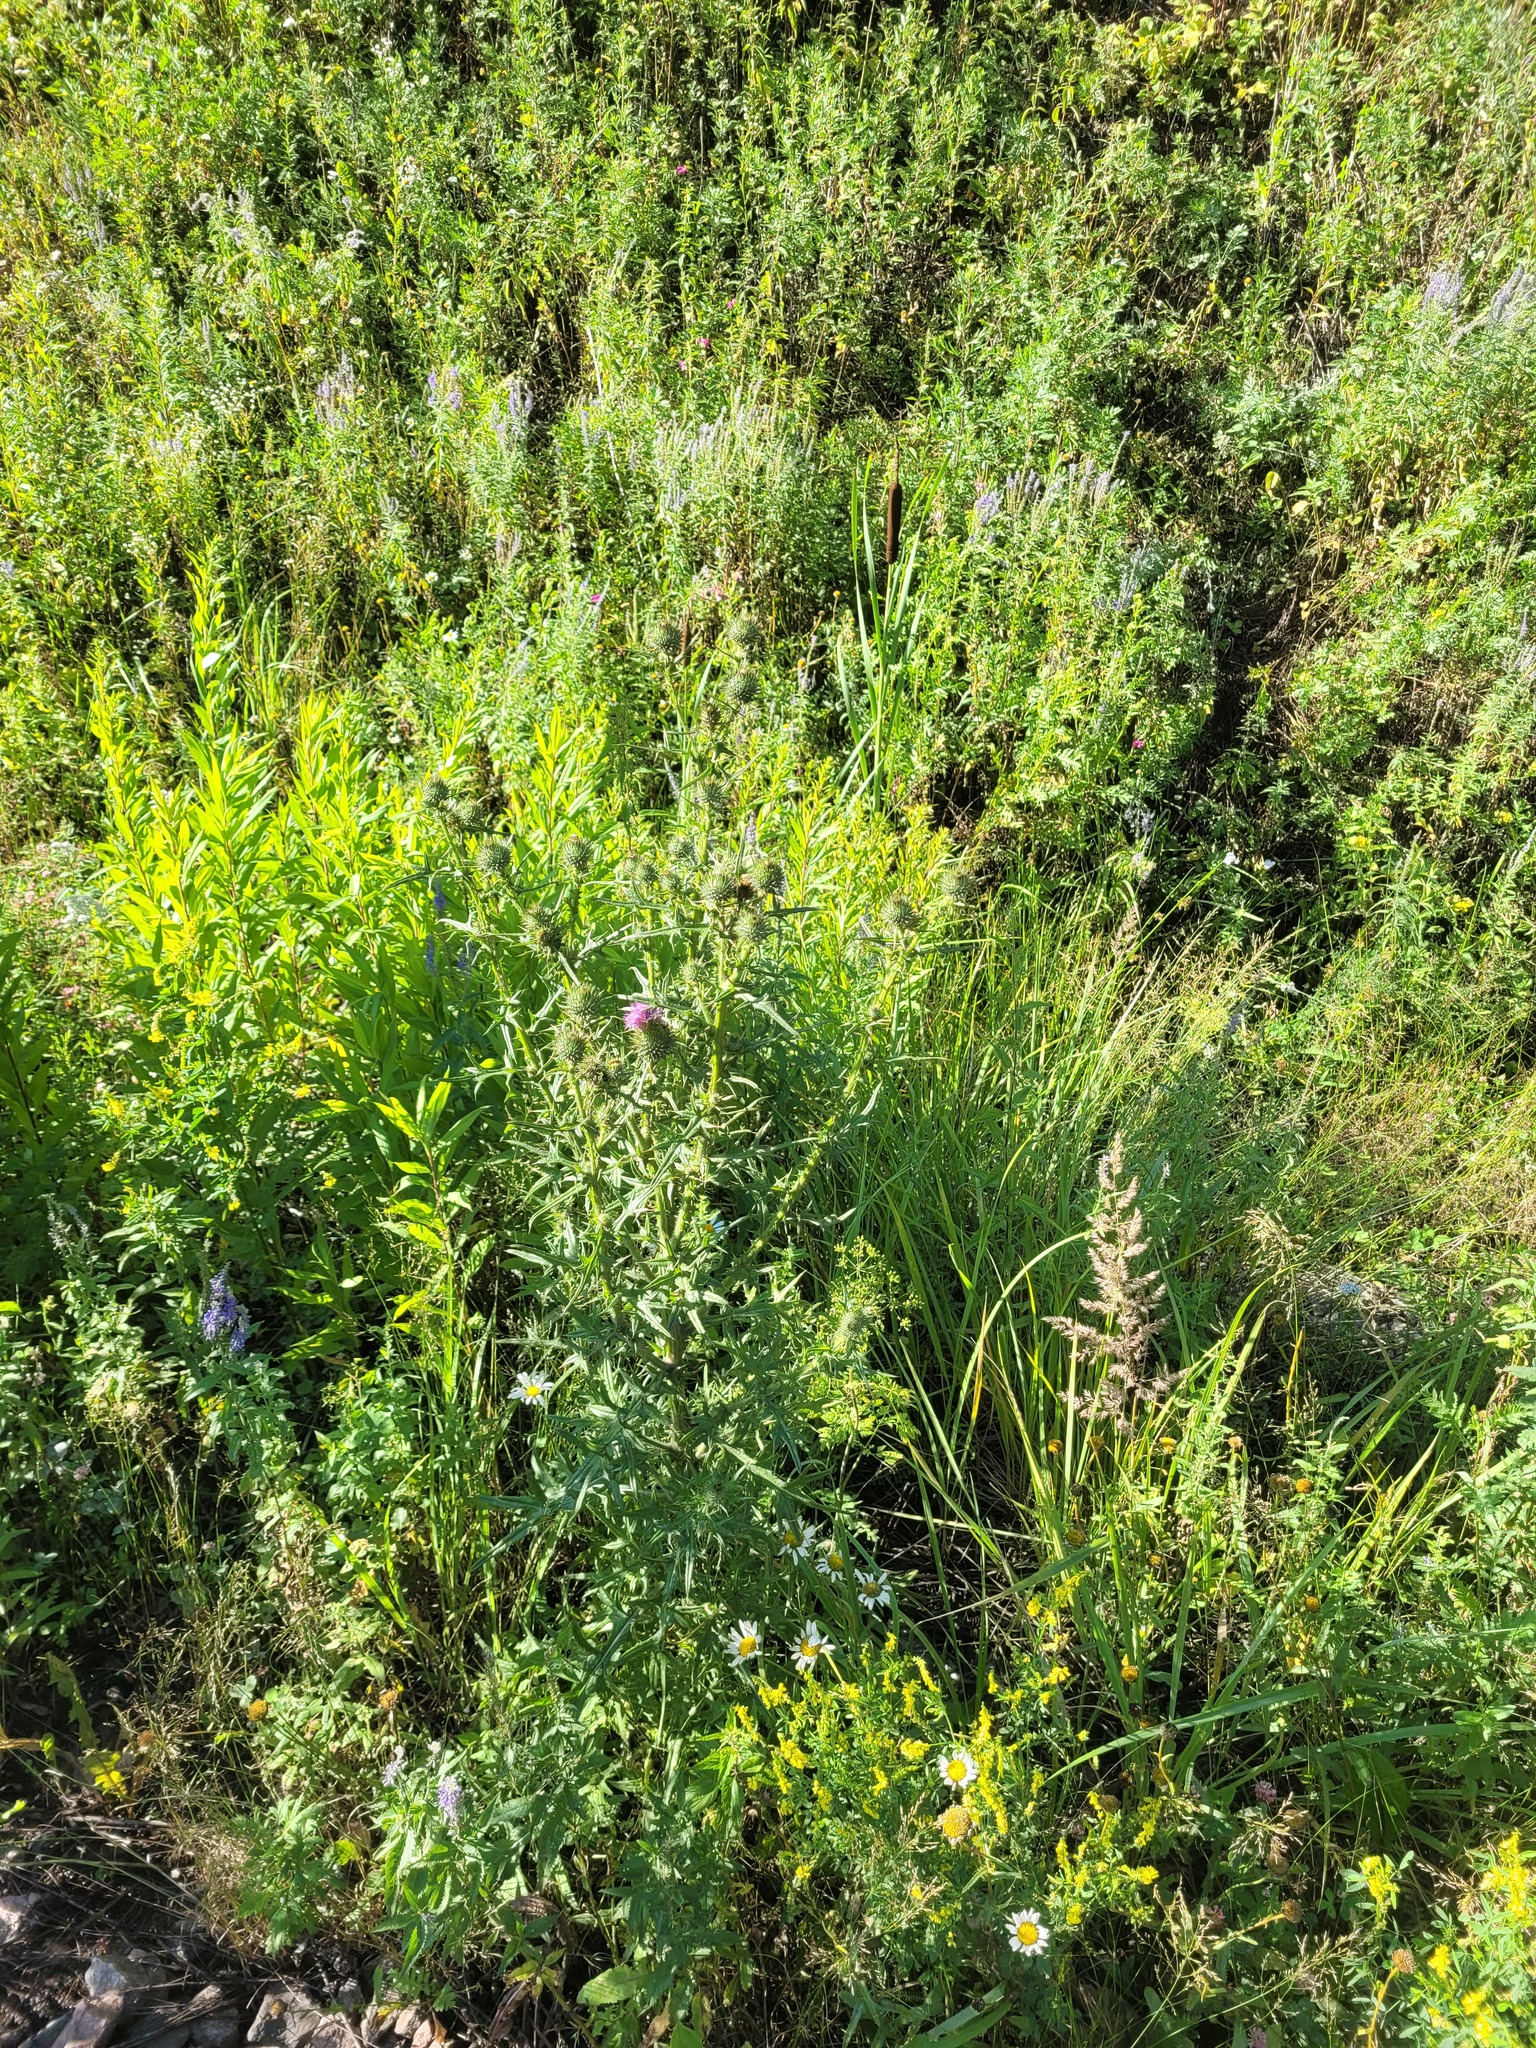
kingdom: Plantae
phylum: Tracheophyta
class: Magnoliopsida
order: Asterales
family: Asteraceae
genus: Cirsium
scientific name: Cirsium vulgare
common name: Bull thistle
